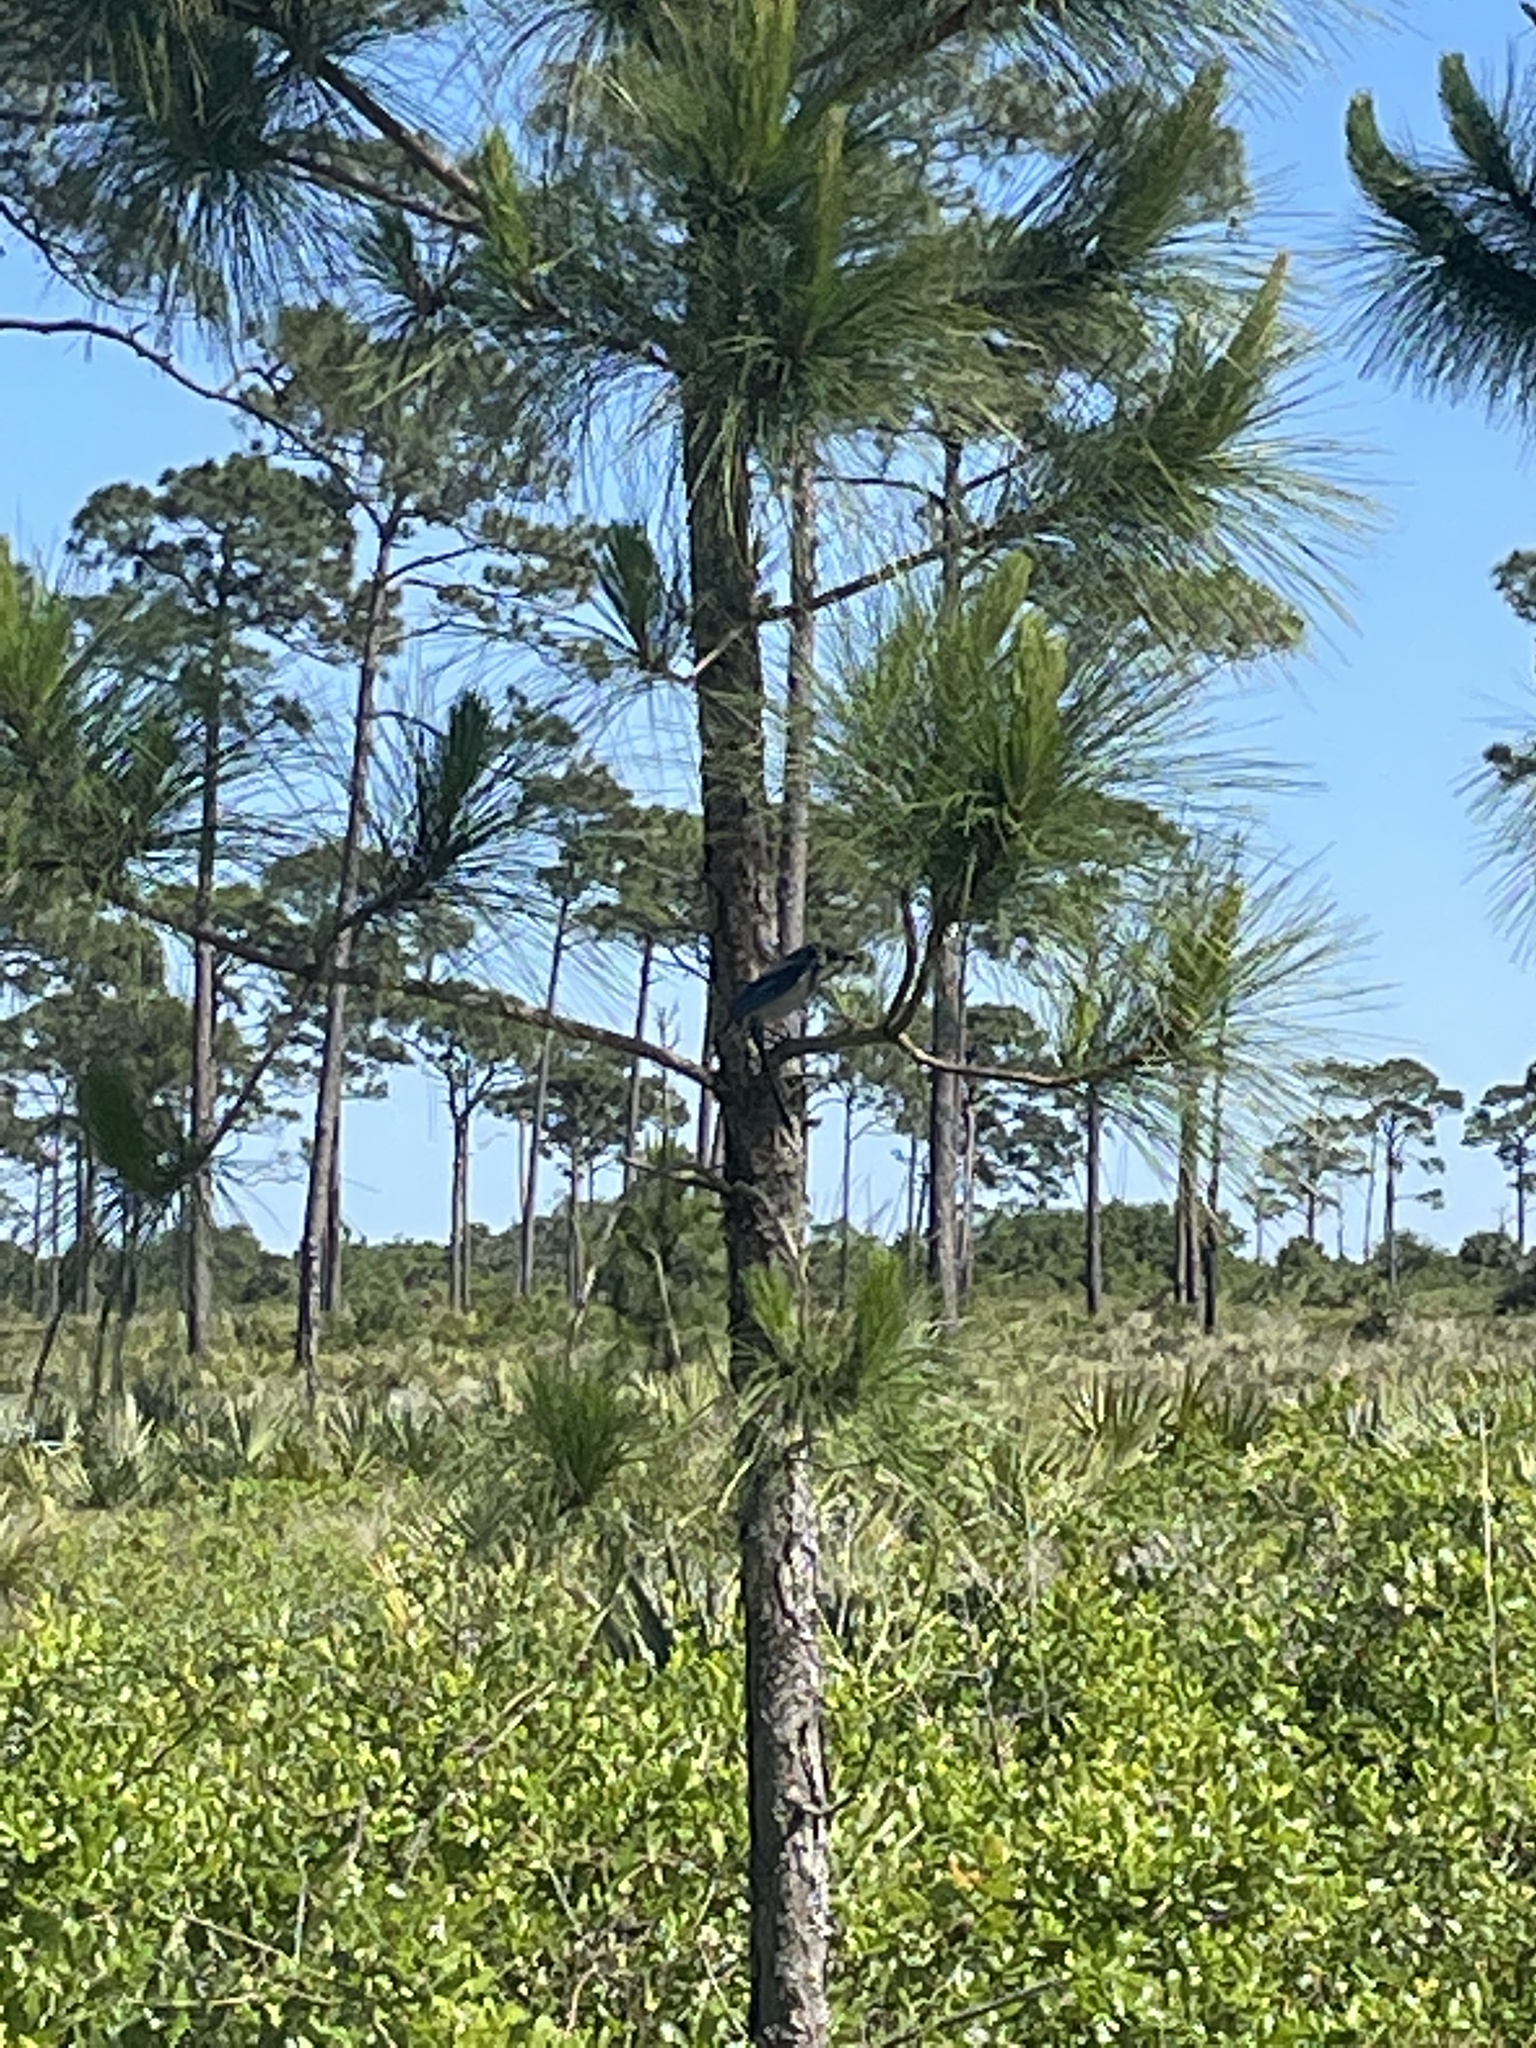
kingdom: Animalia
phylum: Chordata
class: Aves
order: Passeriformes
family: Corvidae
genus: Aphelocoma
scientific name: Aphelocoma coerulescens
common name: Florida scrub jay
